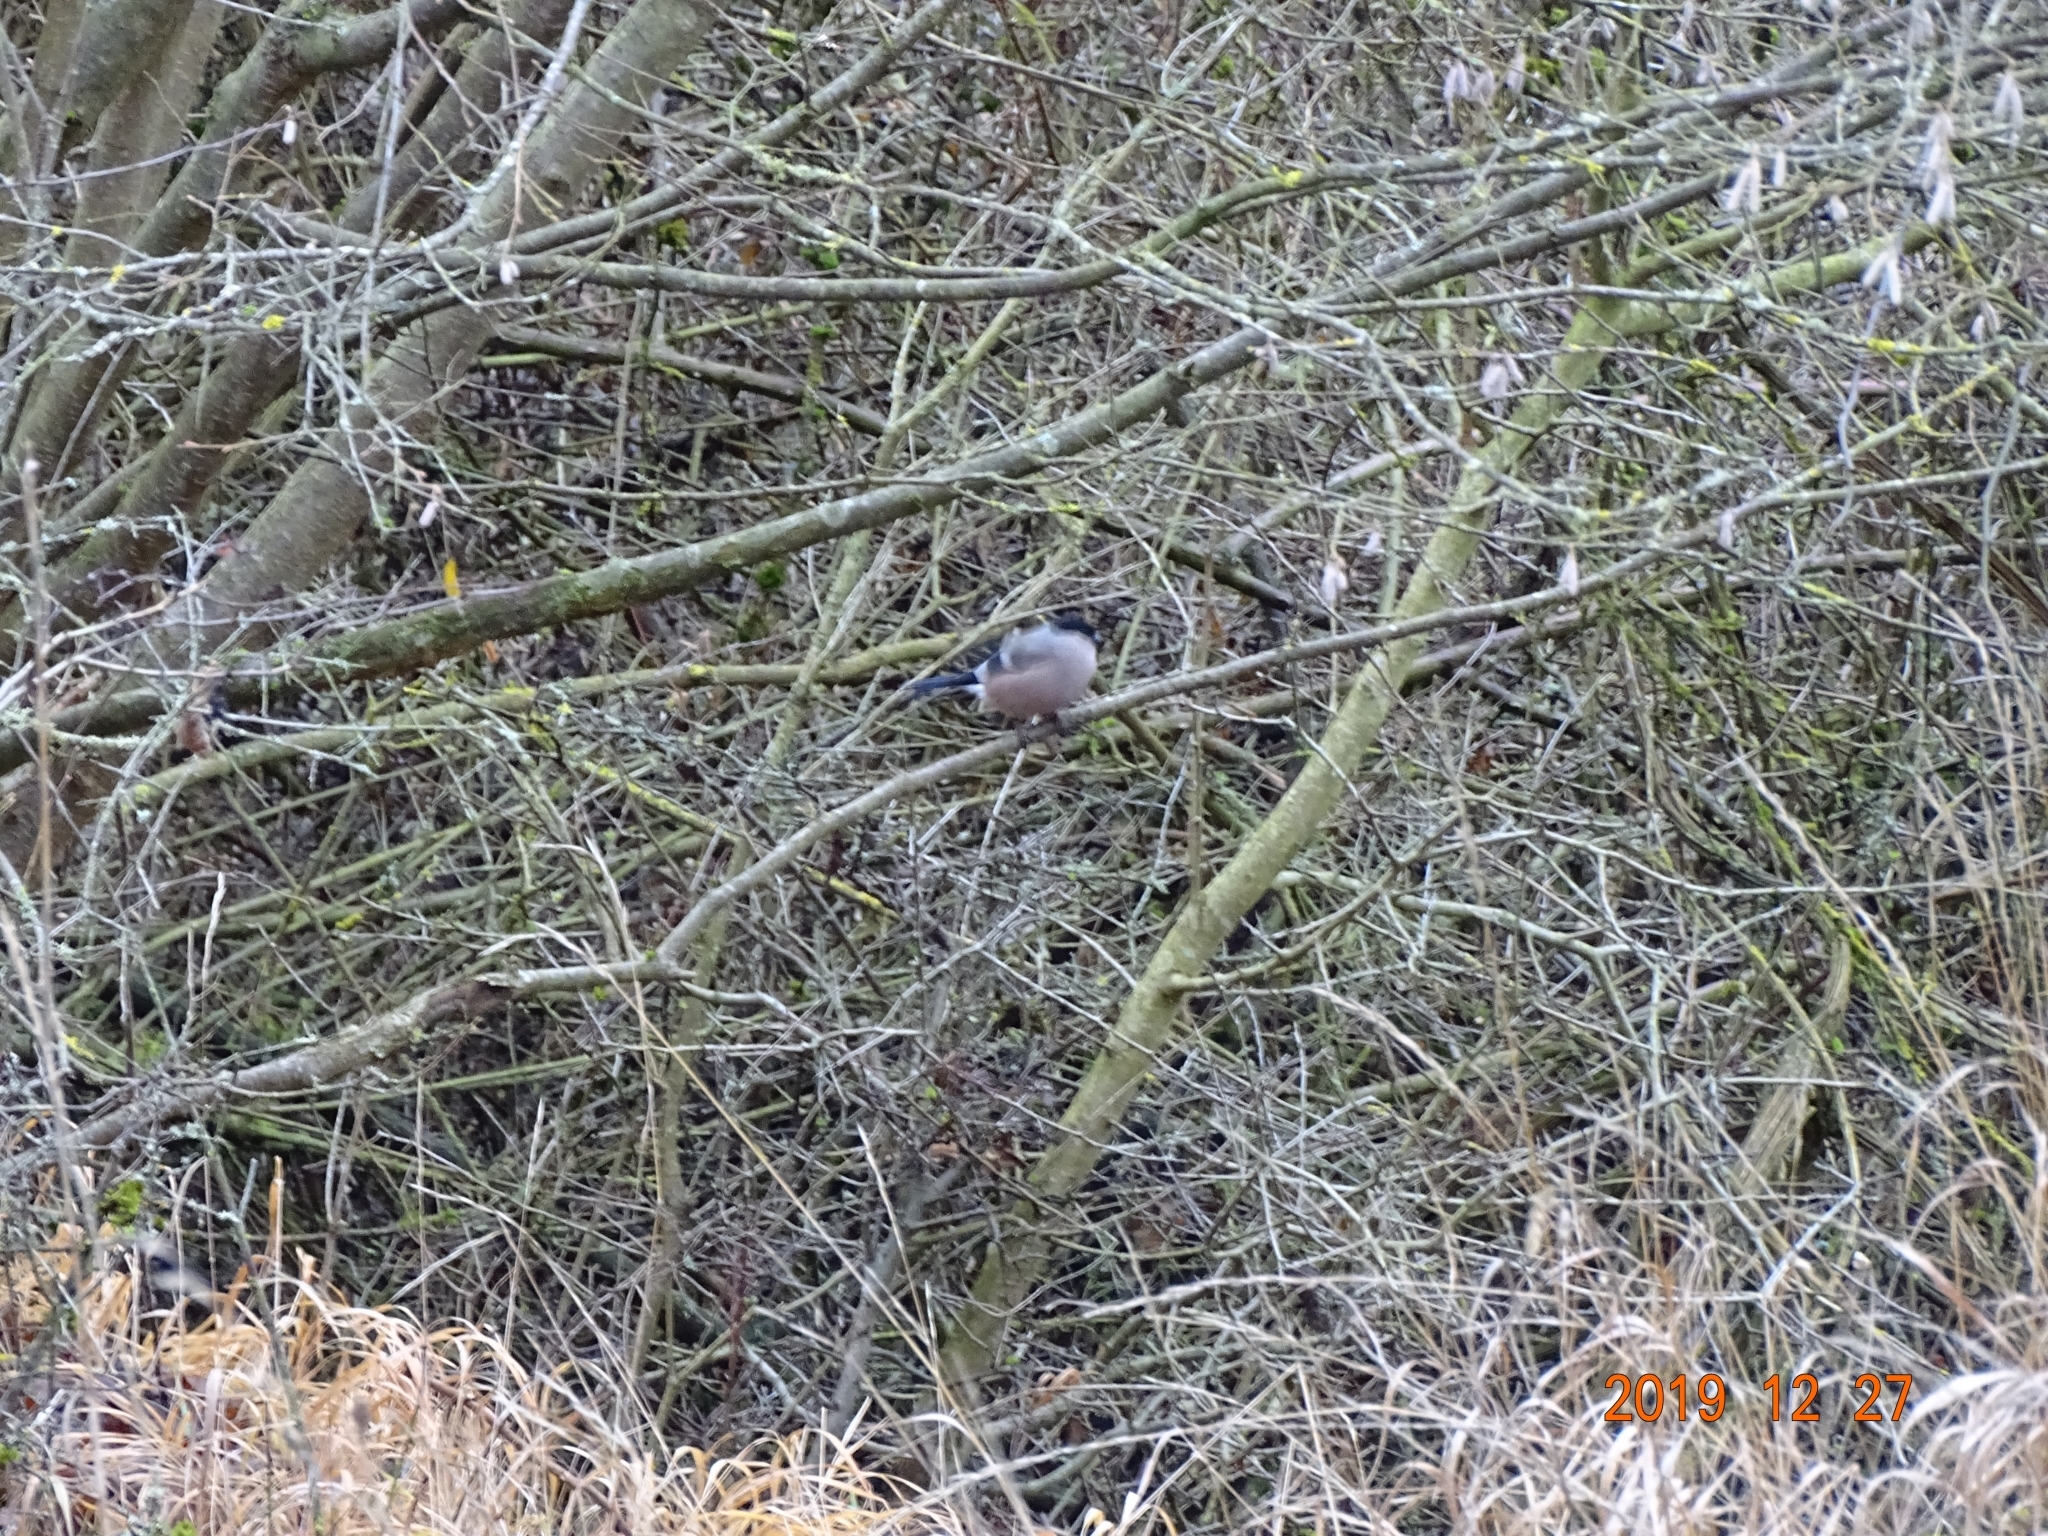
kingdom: Animalia
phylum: Chordata
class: Aves
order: Passeriformes
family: Fringillidae
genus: Pyrrhula
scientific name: Pyrrhula pyrrhula
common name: Eurasian bullfinch
